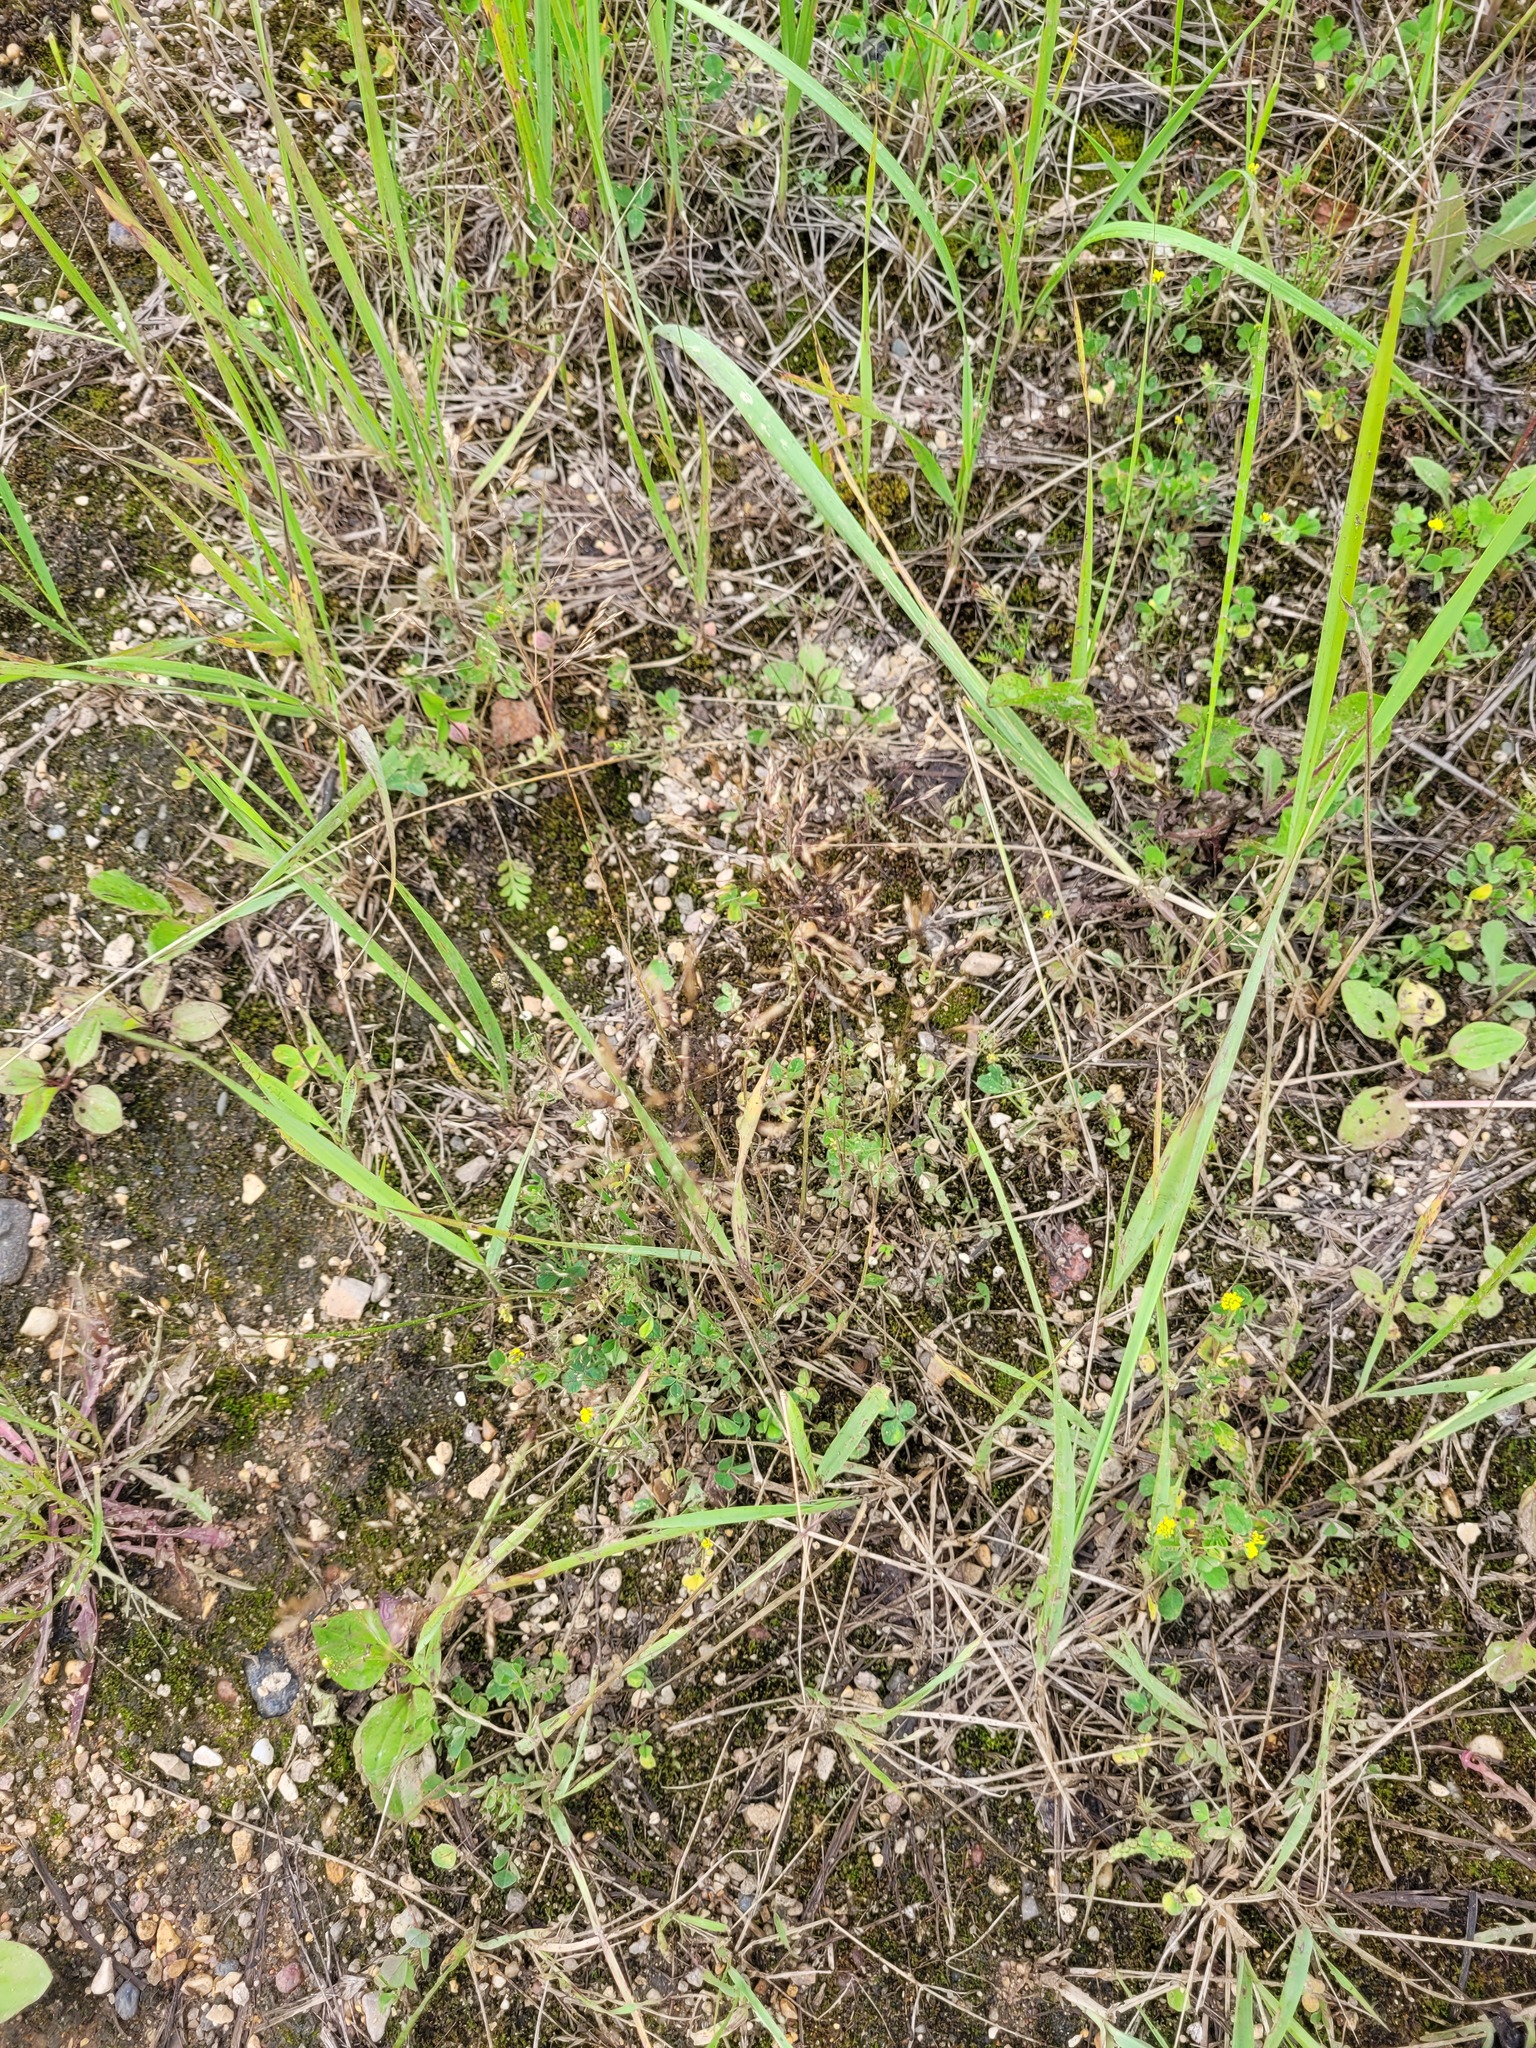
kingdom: Plantae
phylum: Tracheophyta
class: Magnoliopsida
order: Fabales
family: Fabaceae
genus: Medicago
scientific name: Medicago lupulina
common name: Black medick
